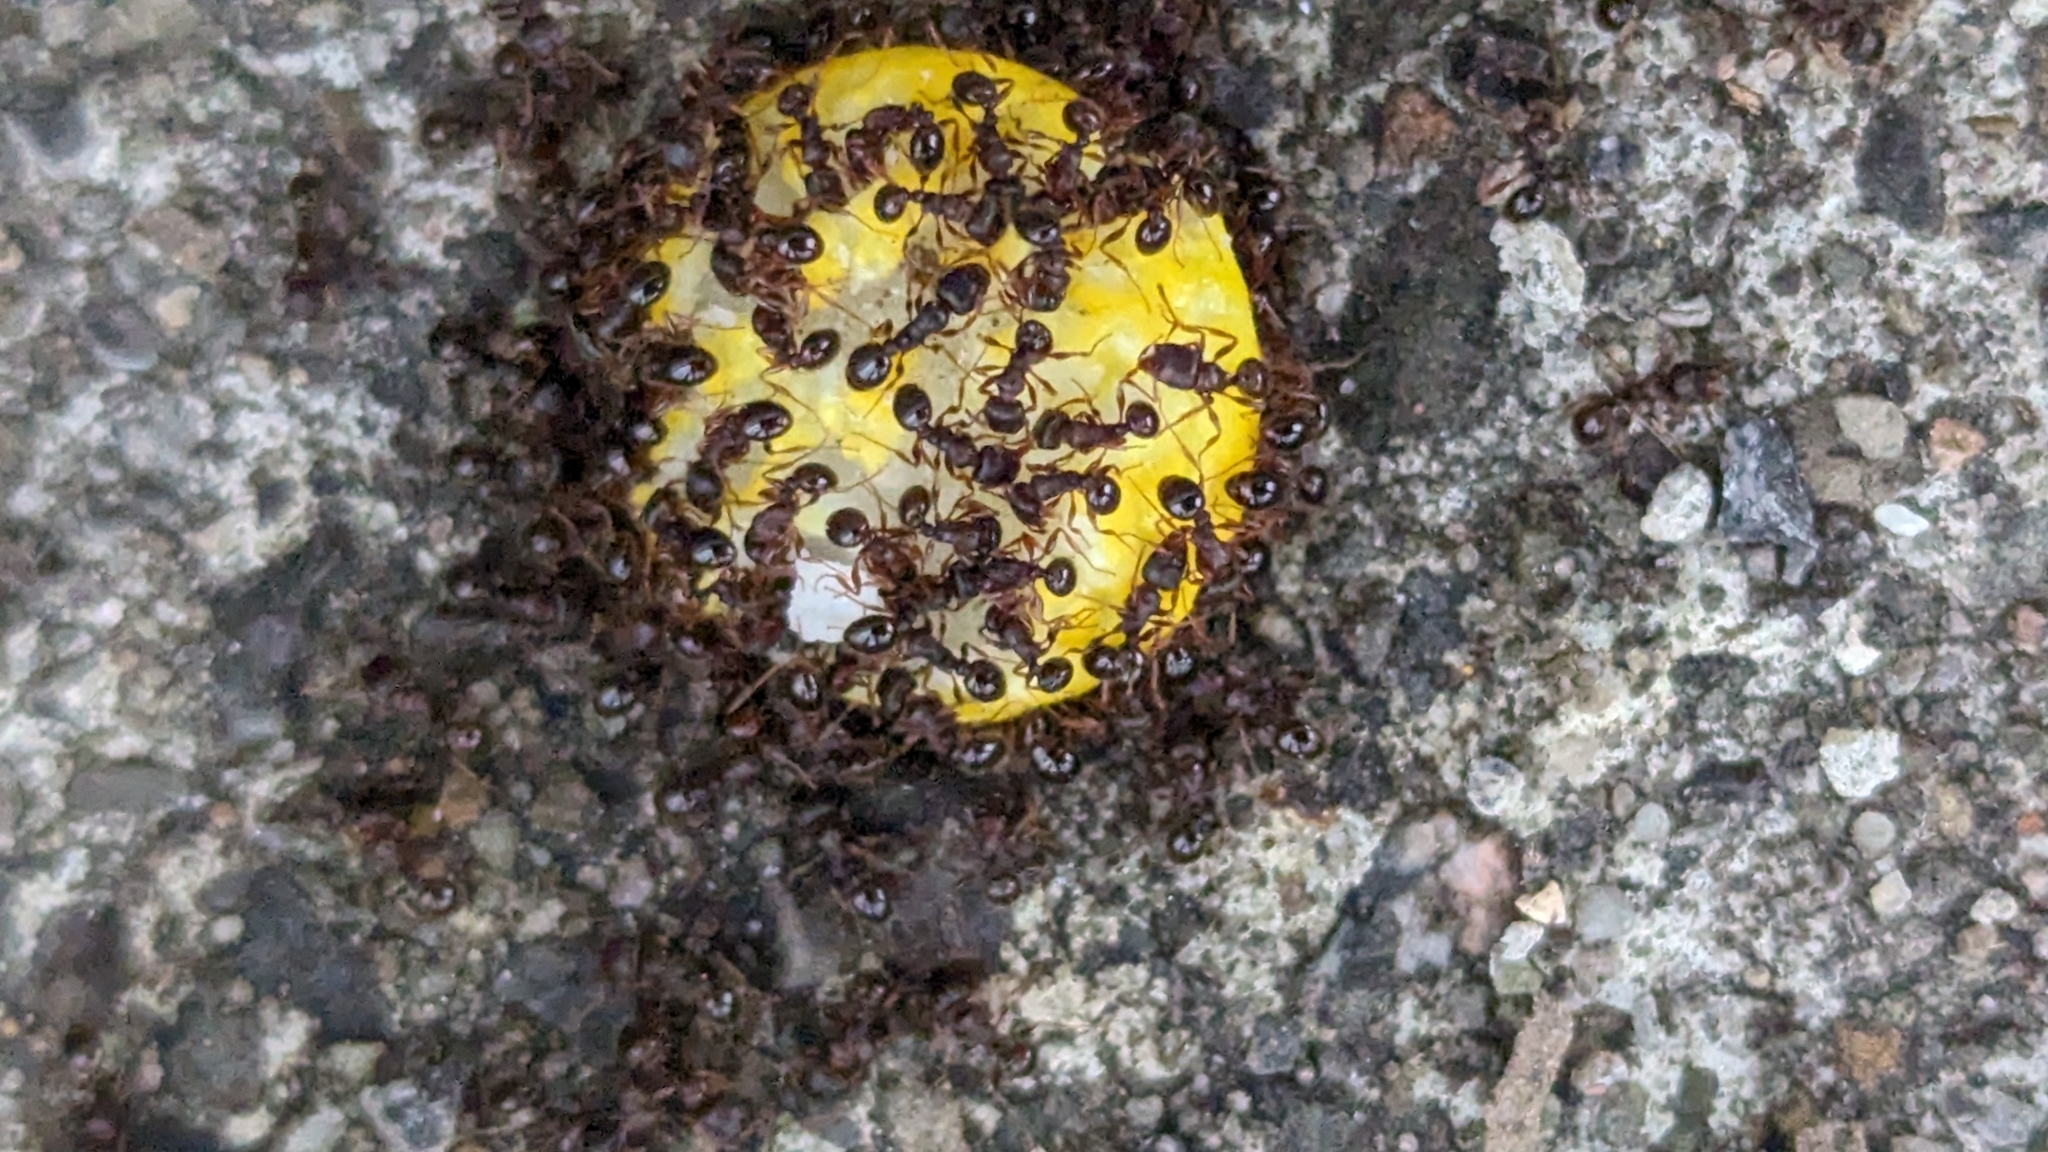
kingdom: Animalia
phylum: Arthropoda
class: Insecta
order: Hymenoptera
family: Formicidae
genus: Tetramorium
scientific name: Tetramorium immigrans
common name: Pavement ant
